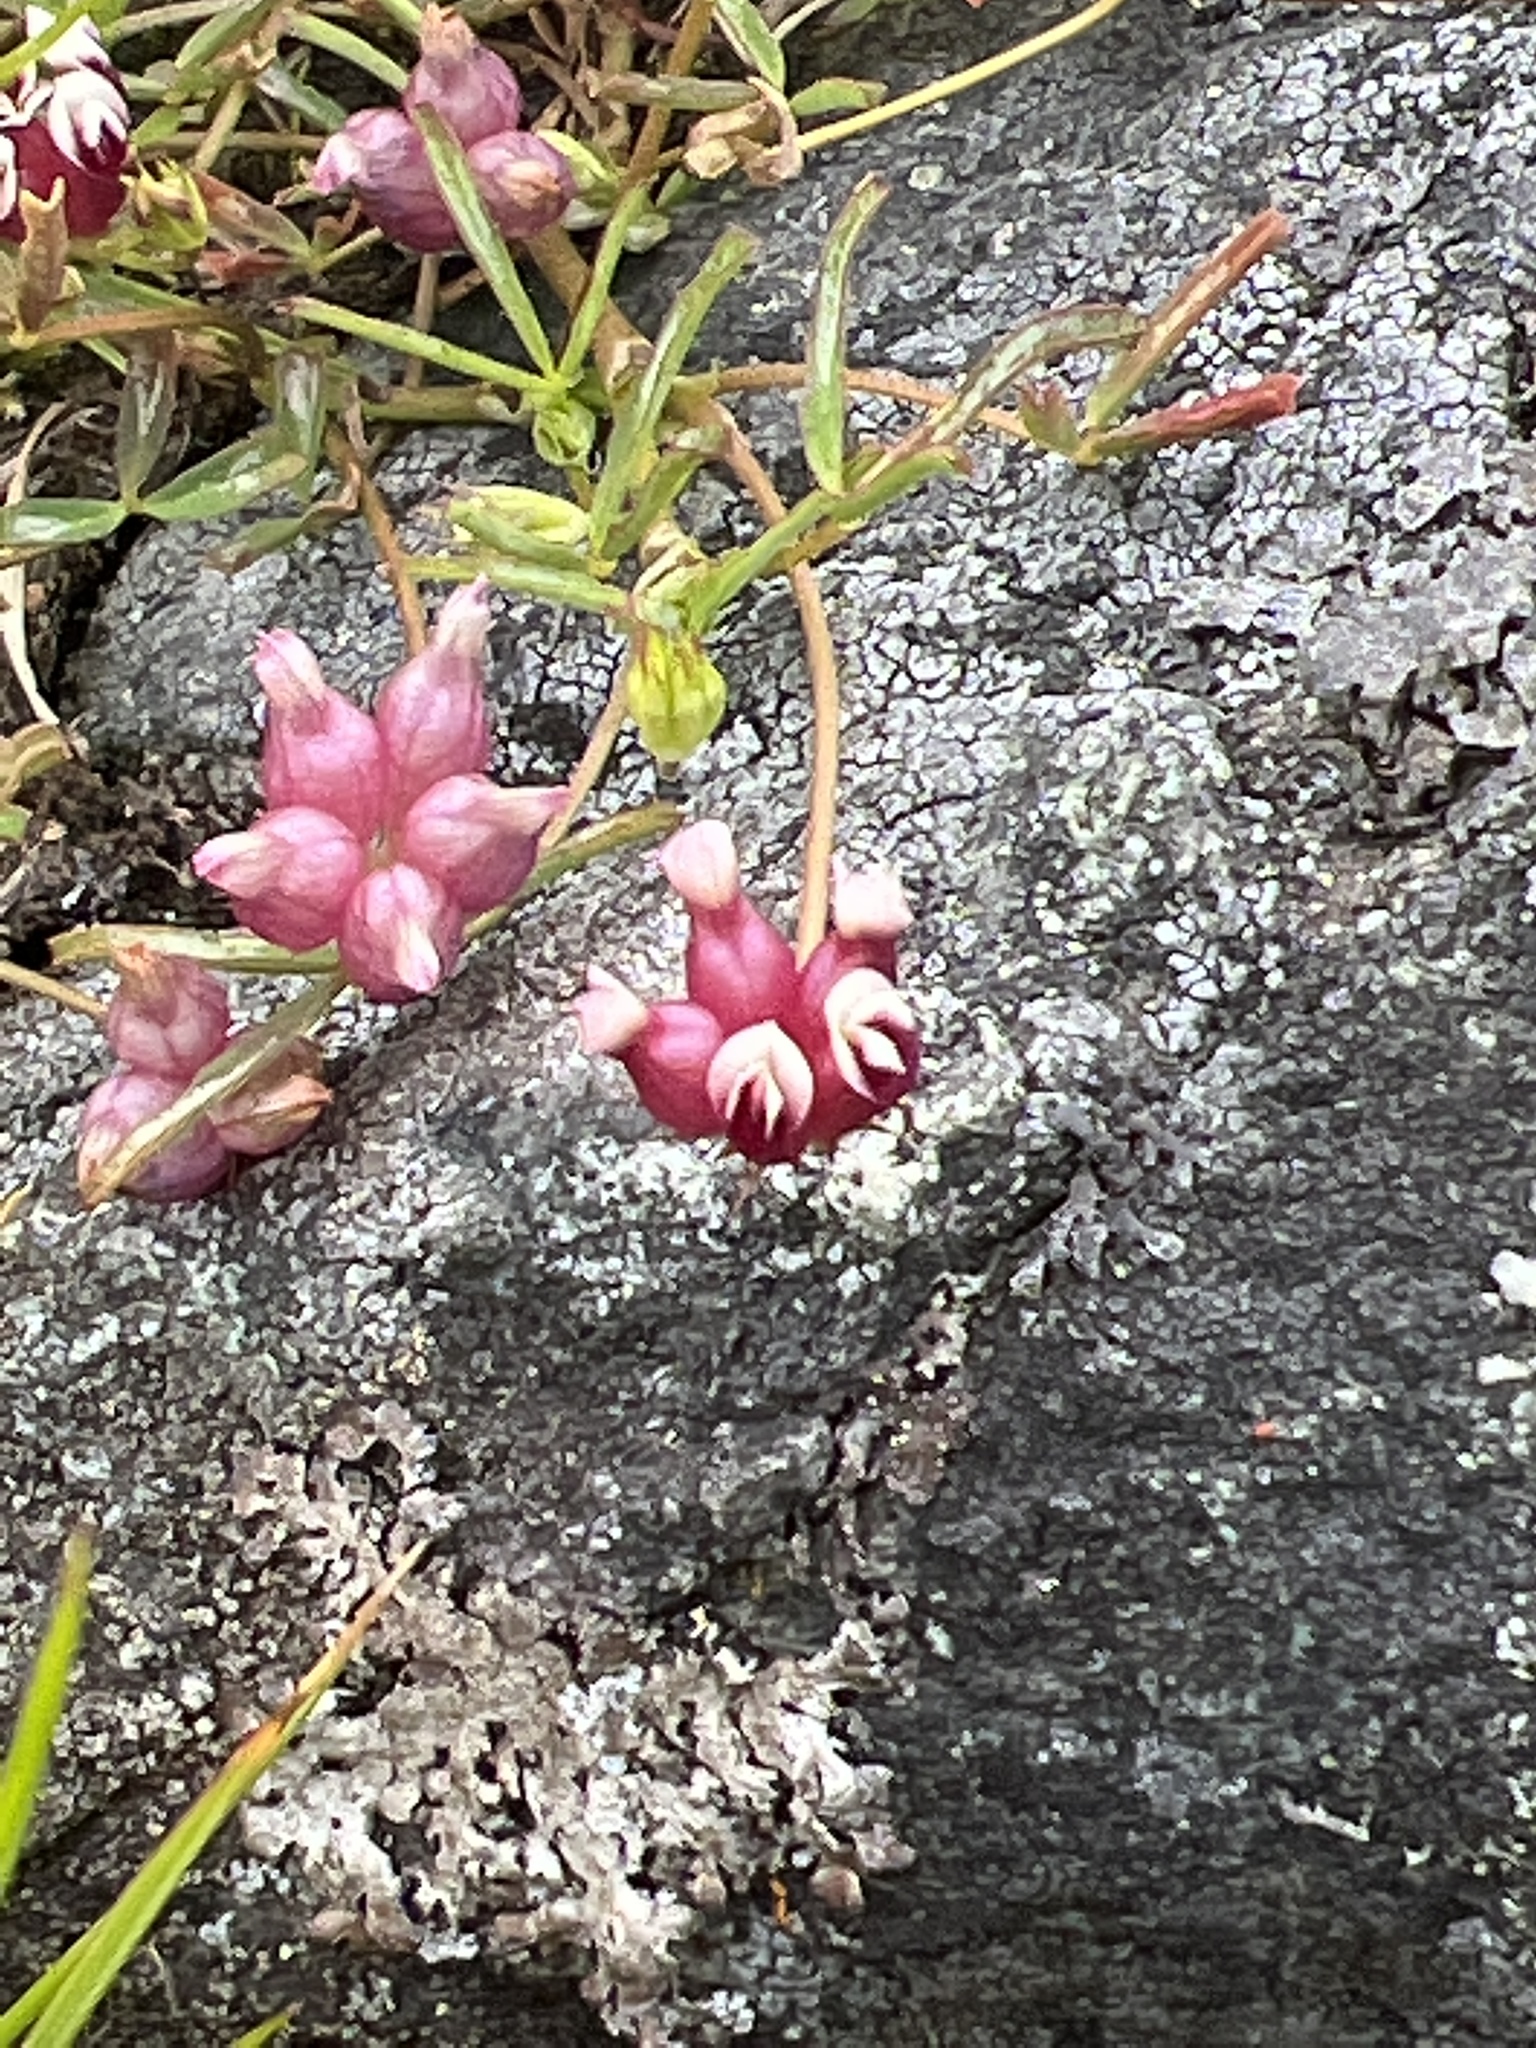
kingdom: Plantae
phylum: Tracheophyta
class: Magnoliopsida
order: Fabales
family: Fabaceae
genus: Trifolium
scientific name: Trifolium depauperatum
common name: Poverty clover
